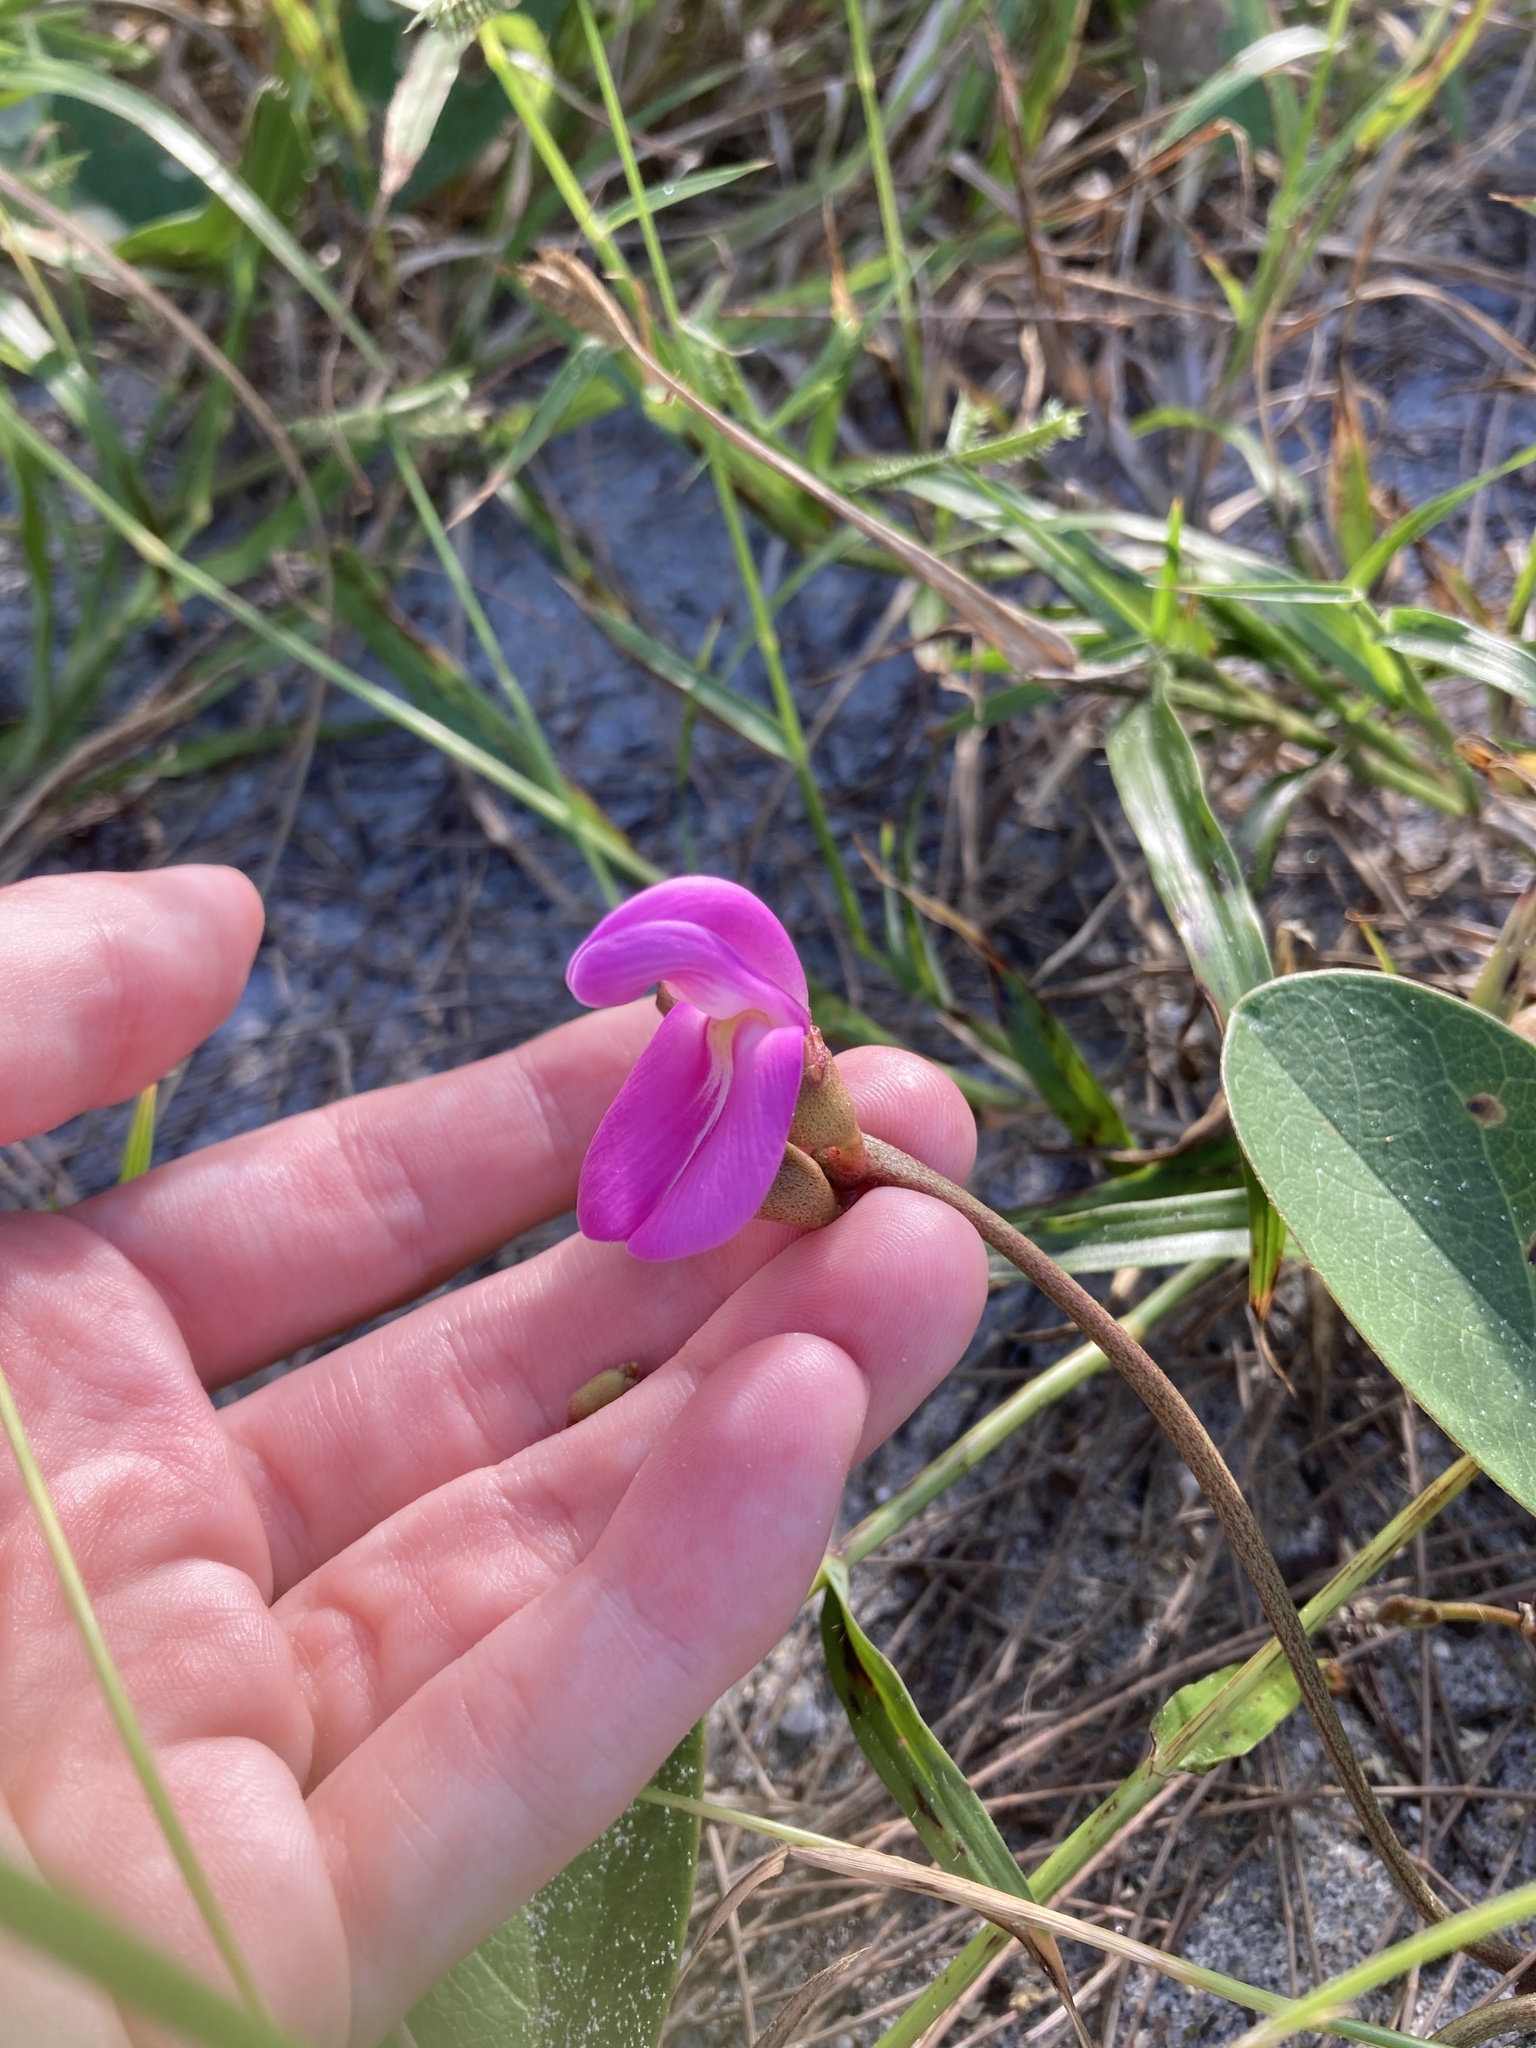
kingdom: Plantae
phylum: Tracheophyta
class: Magnoliopsida
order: Fabales
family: Fabaceae
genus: Canavalia
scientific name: Canavalia rosea
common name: Beach-bean
